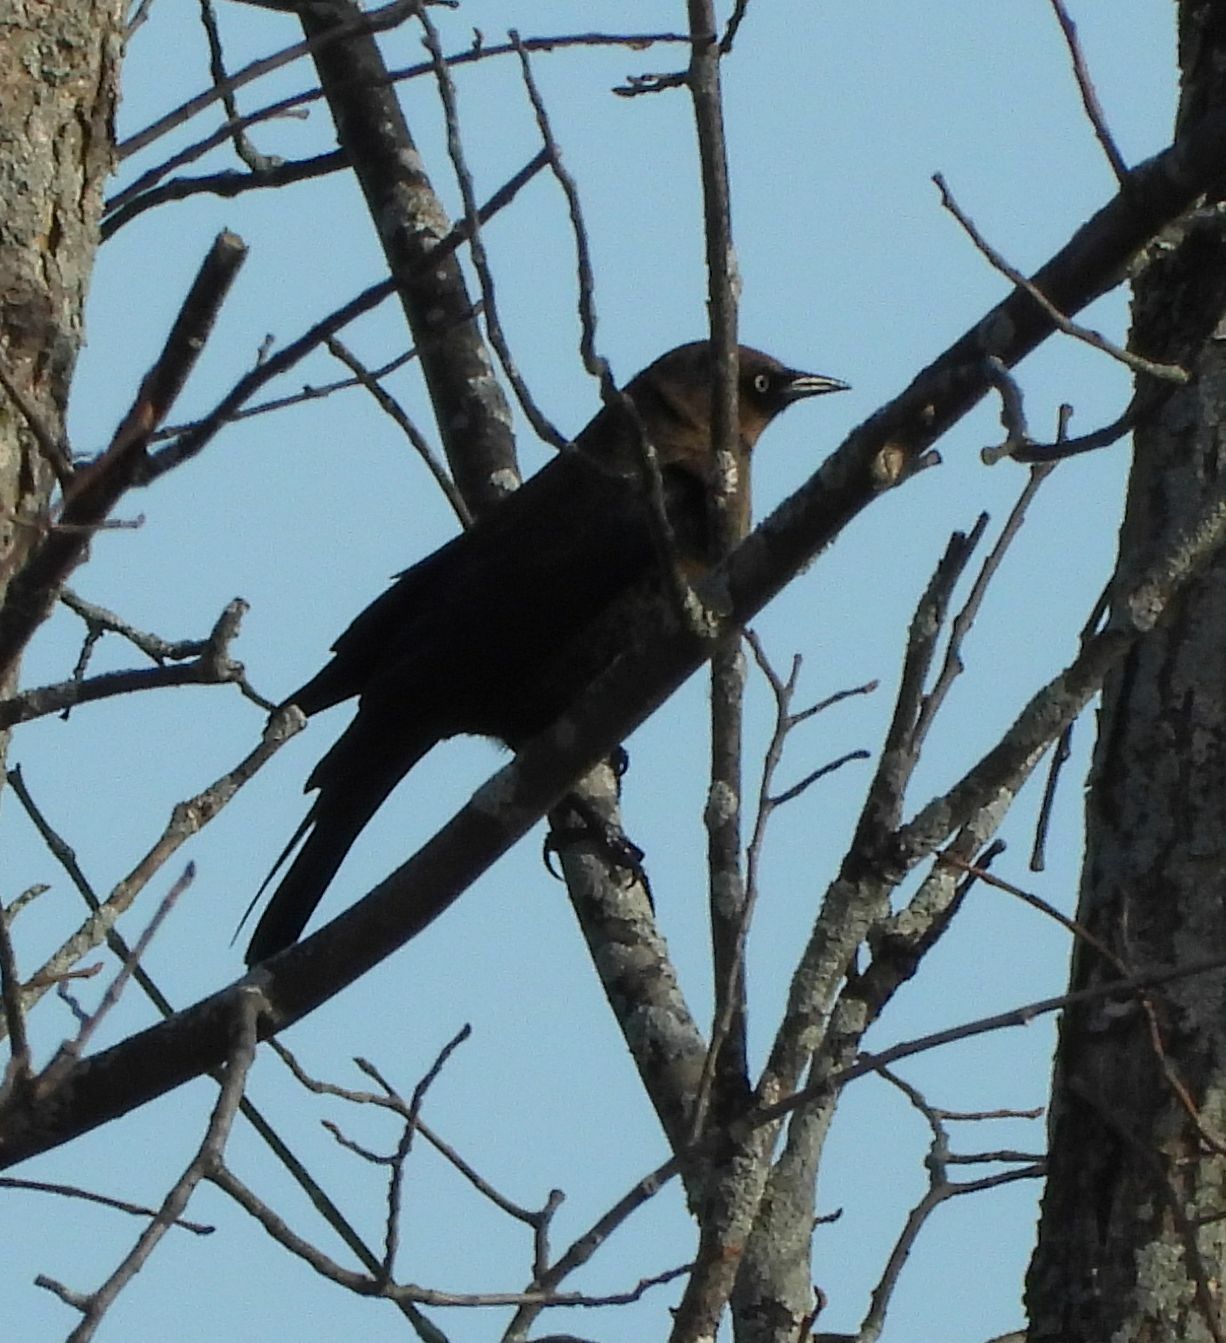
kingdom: Animalia
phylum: Chordata
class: Aves
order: Passeriformes
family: Icteridae
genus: Euphagus
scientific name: Euphagus carolinus
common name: Rusty blackbird
